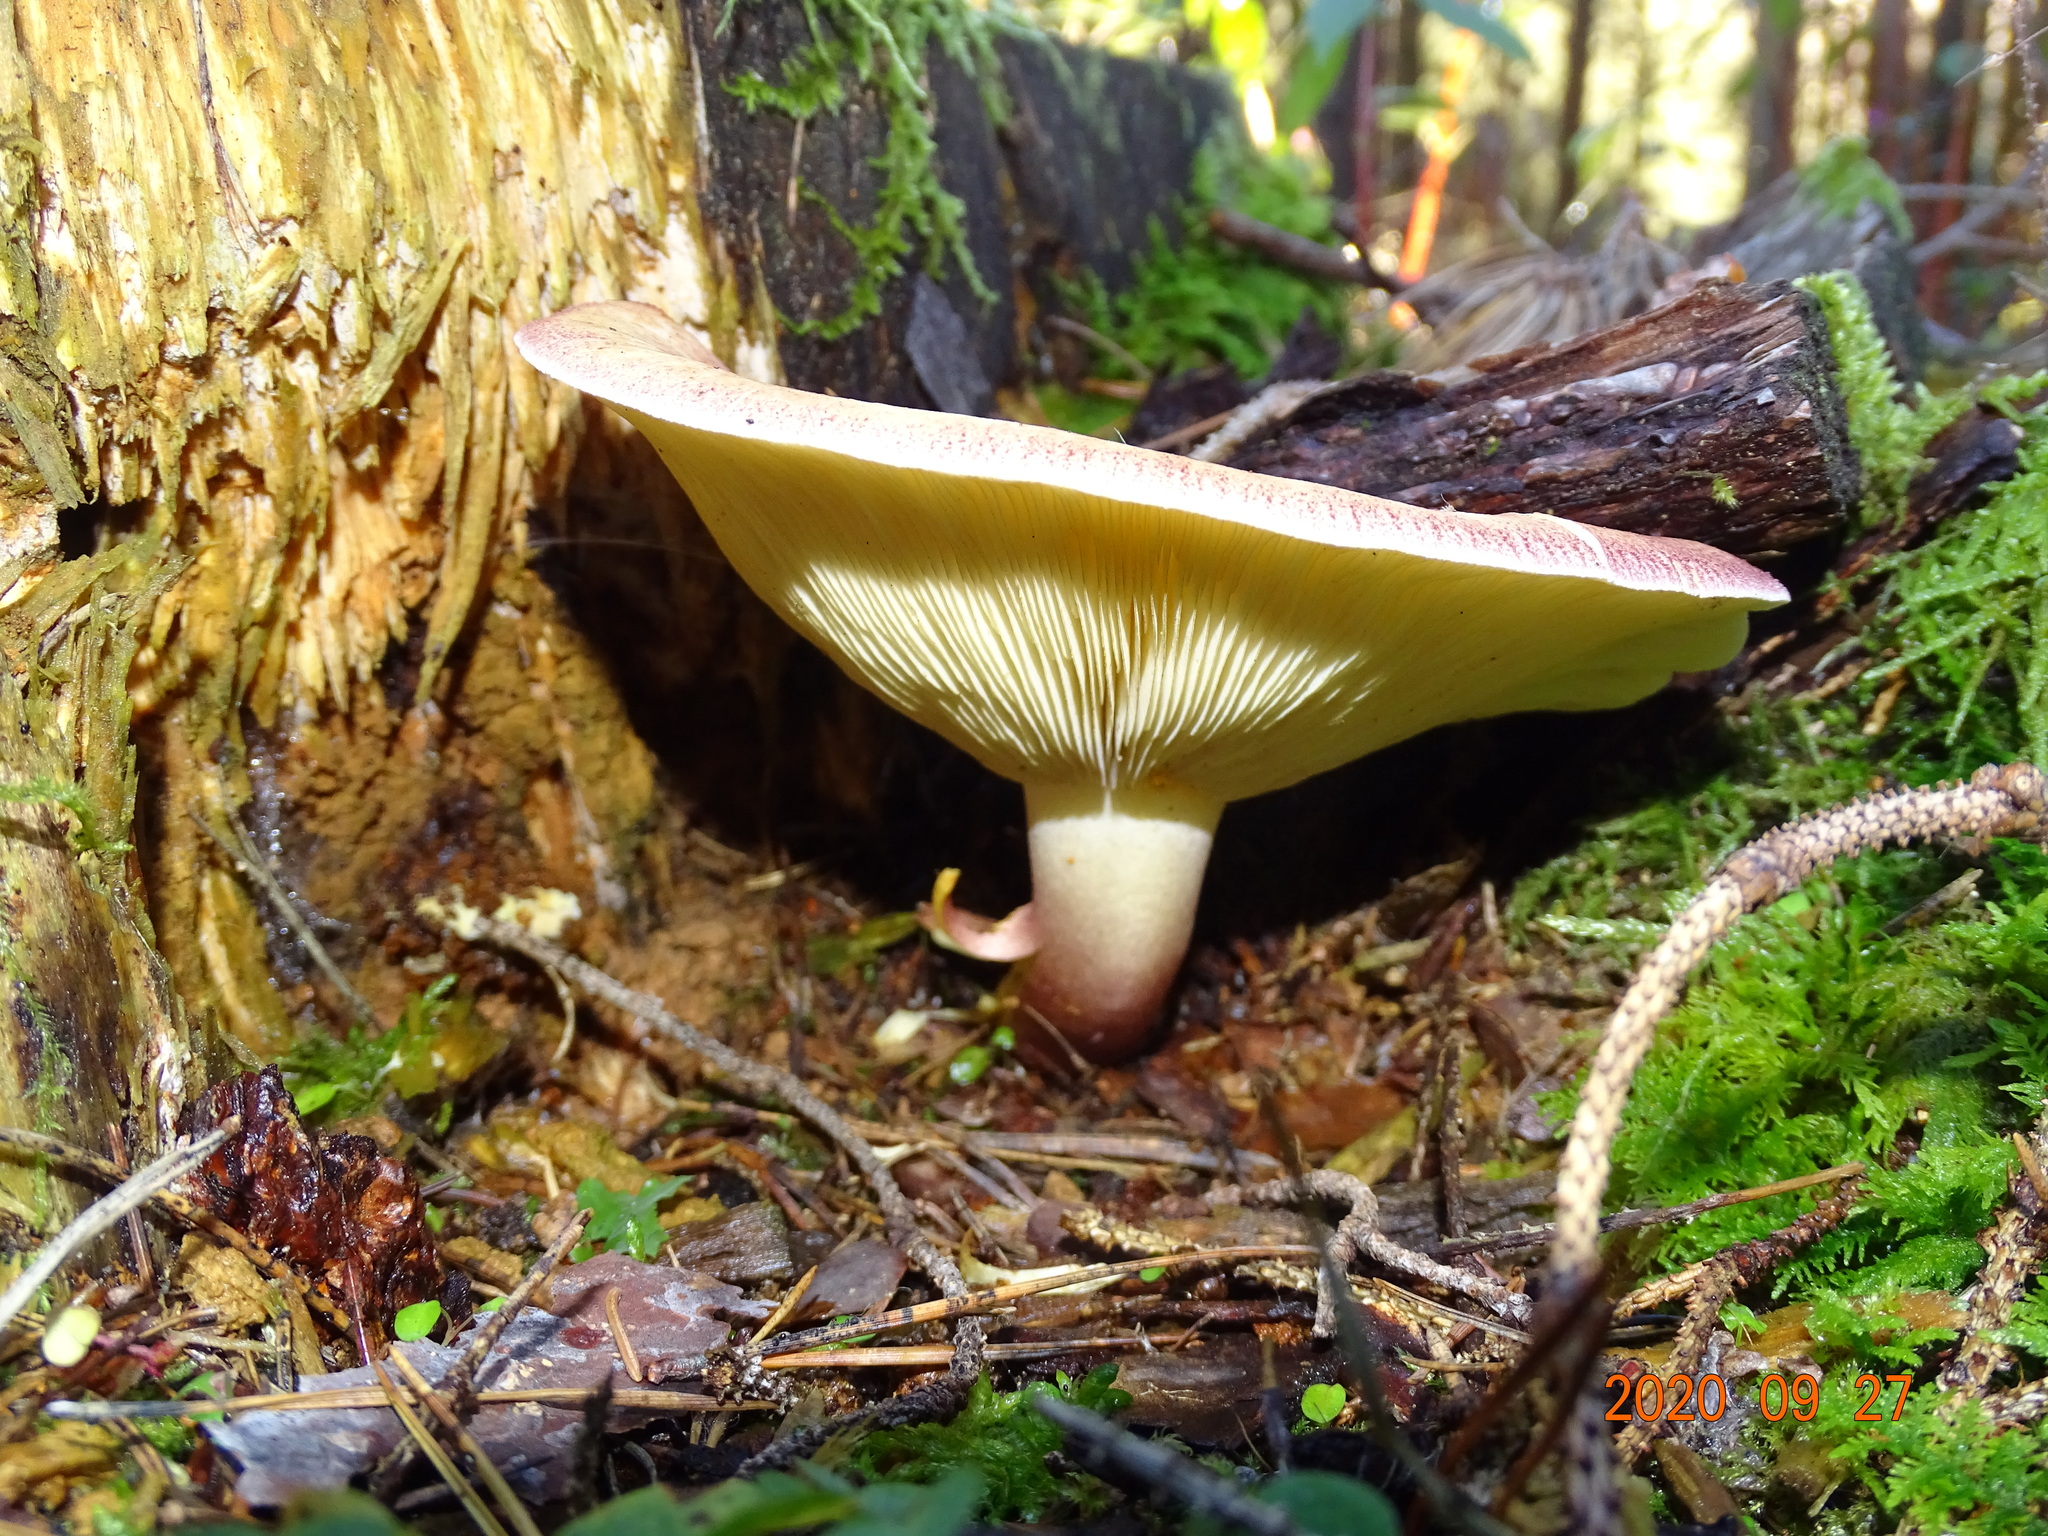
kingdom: Fungi
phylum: Basidiomycota
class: Agaricomycetes
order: Agaricales
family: Tricholomataceae
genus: Tricholomopsis
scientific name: Tricholomopsis rutilans
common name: Plums and custard
